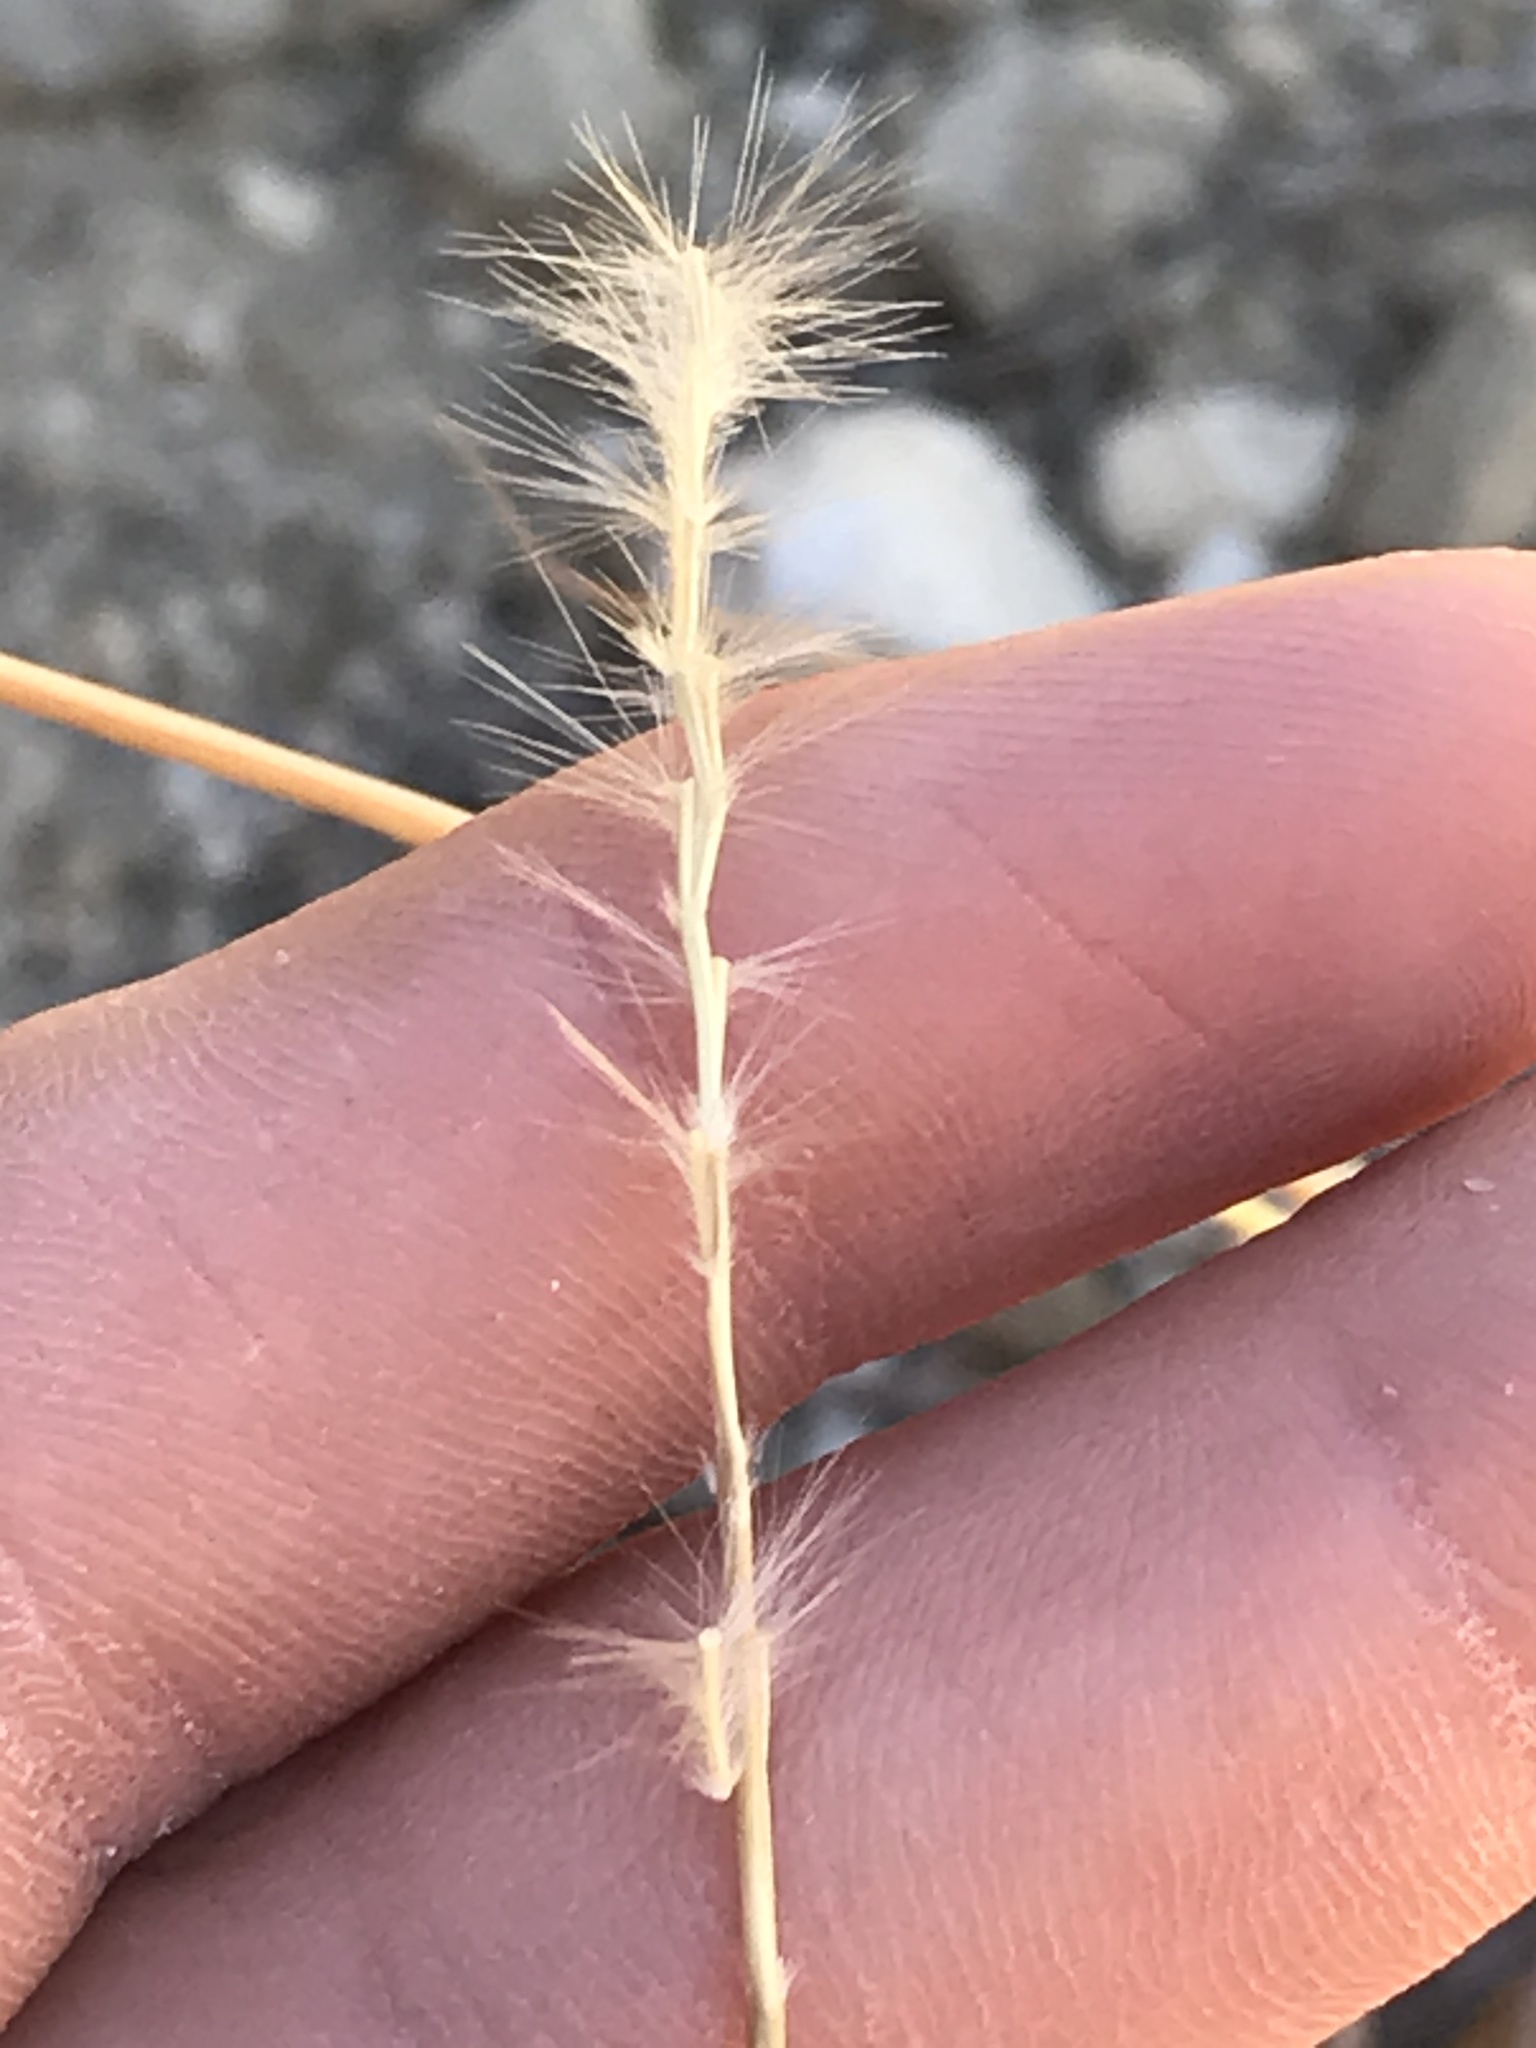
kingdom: Plantae
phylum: Tracheophyta
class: Liliopsida
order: Poales
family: Poaceae
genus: Bothriochloa
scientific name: Bothriochloa barbinodis
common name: Cane bluestem
